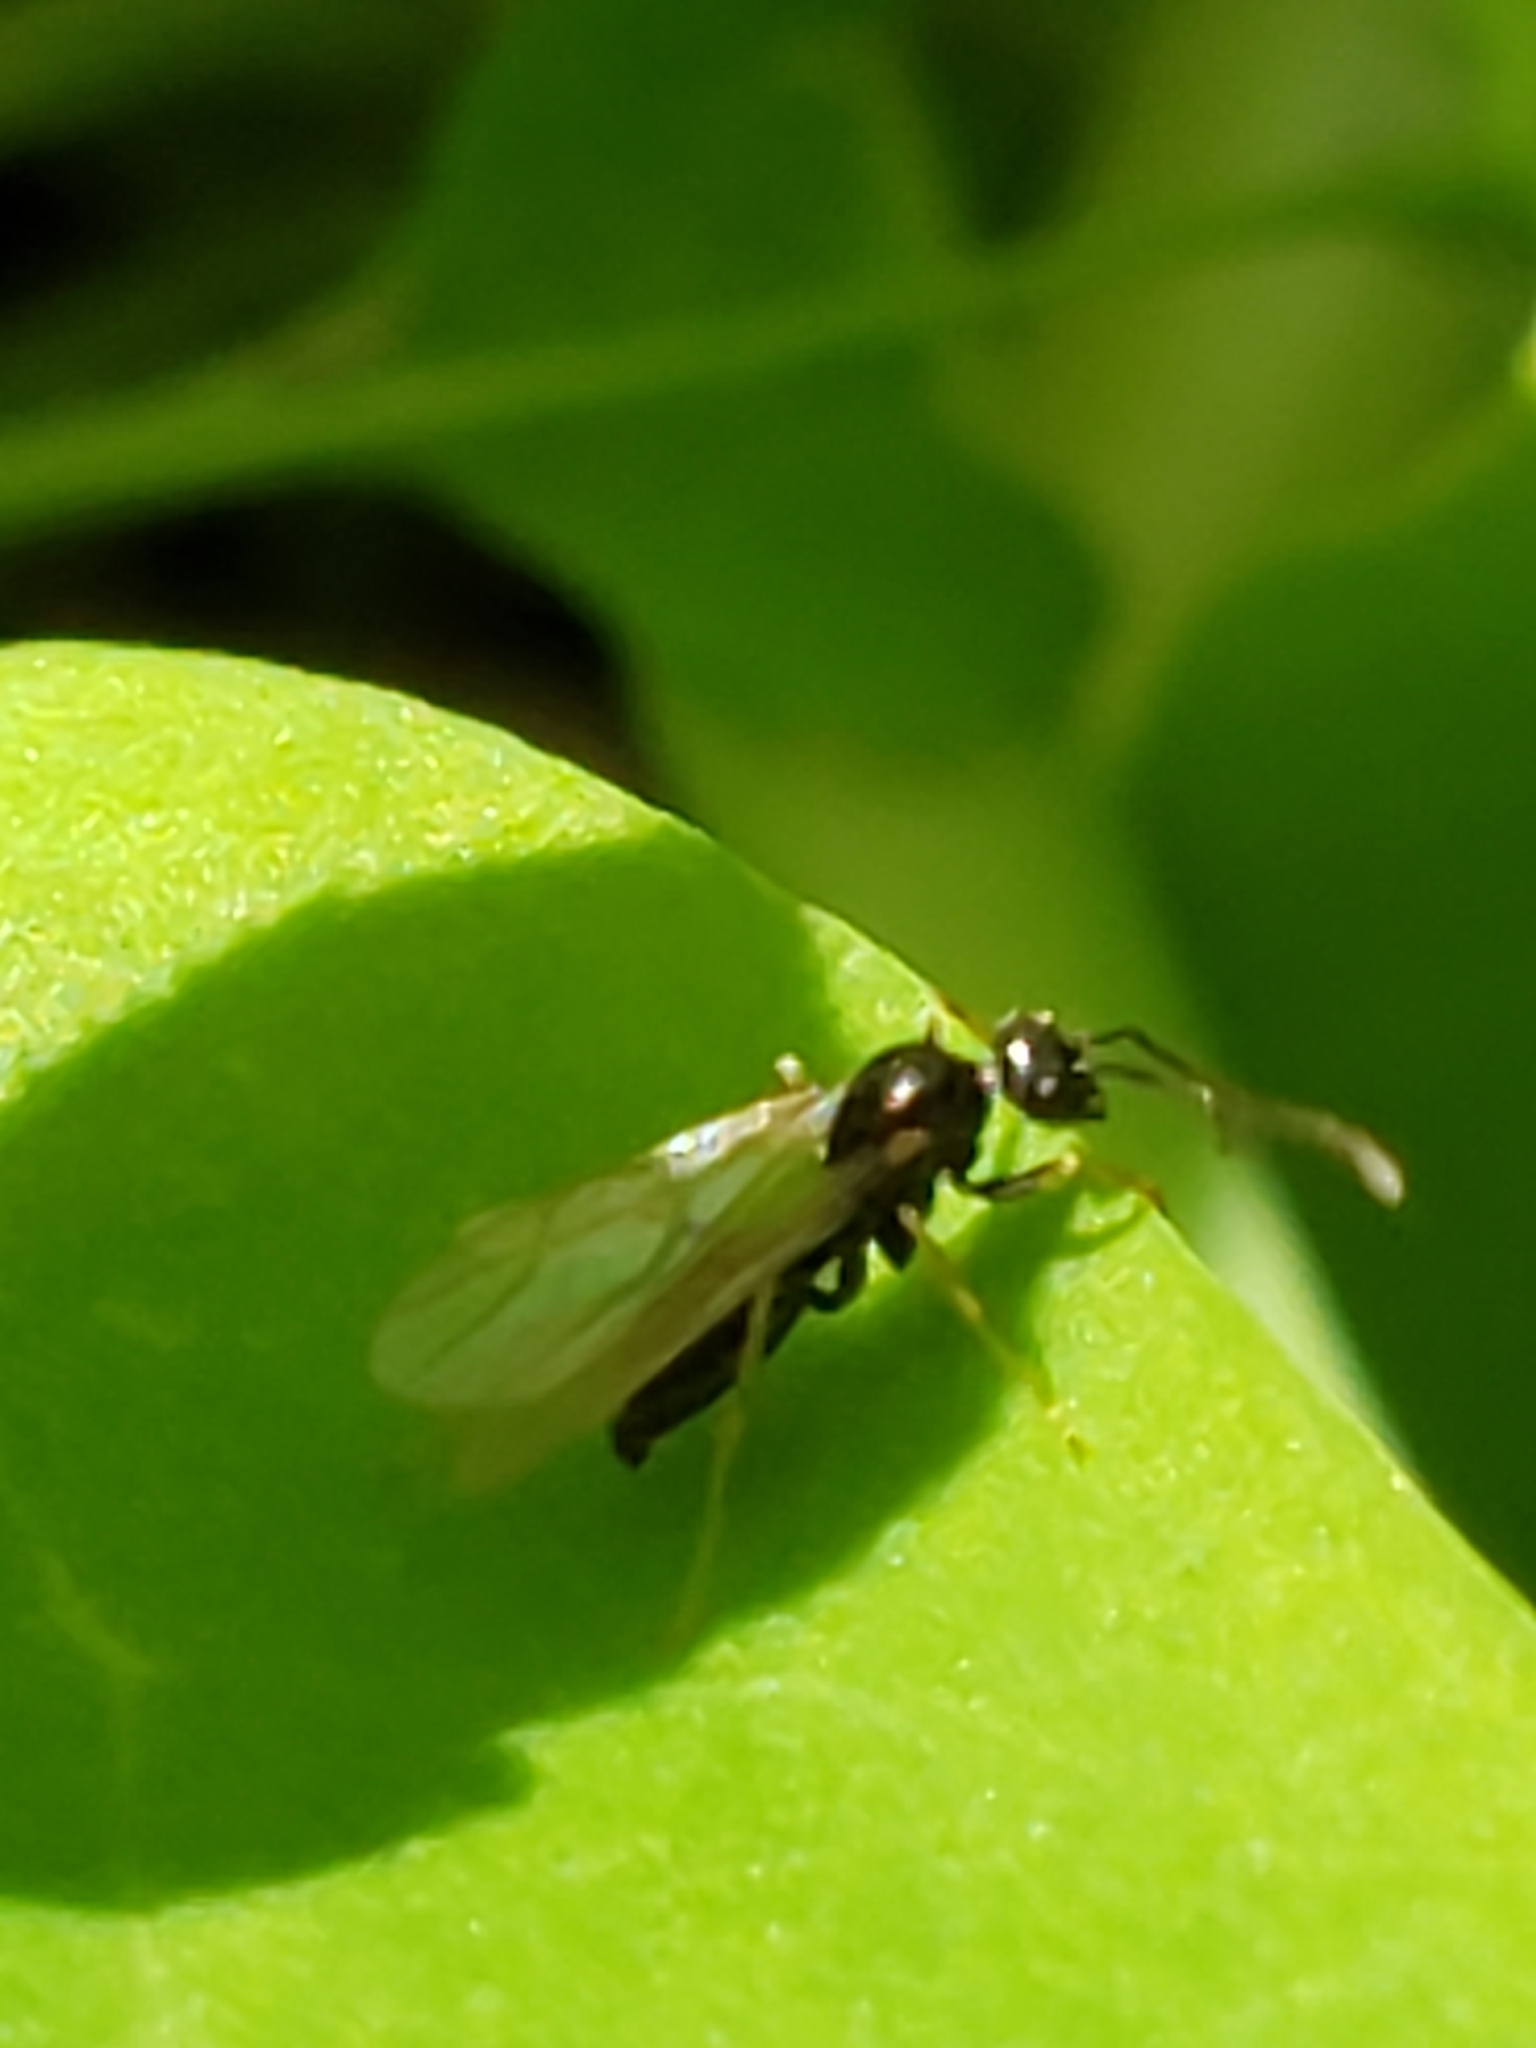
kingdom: Animalia
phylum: Arthropoda
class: Insecta
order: Hymenoptera
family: Formicidae
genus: Prenolepis
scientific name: Prenolepis imparis
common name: Small honey ant
